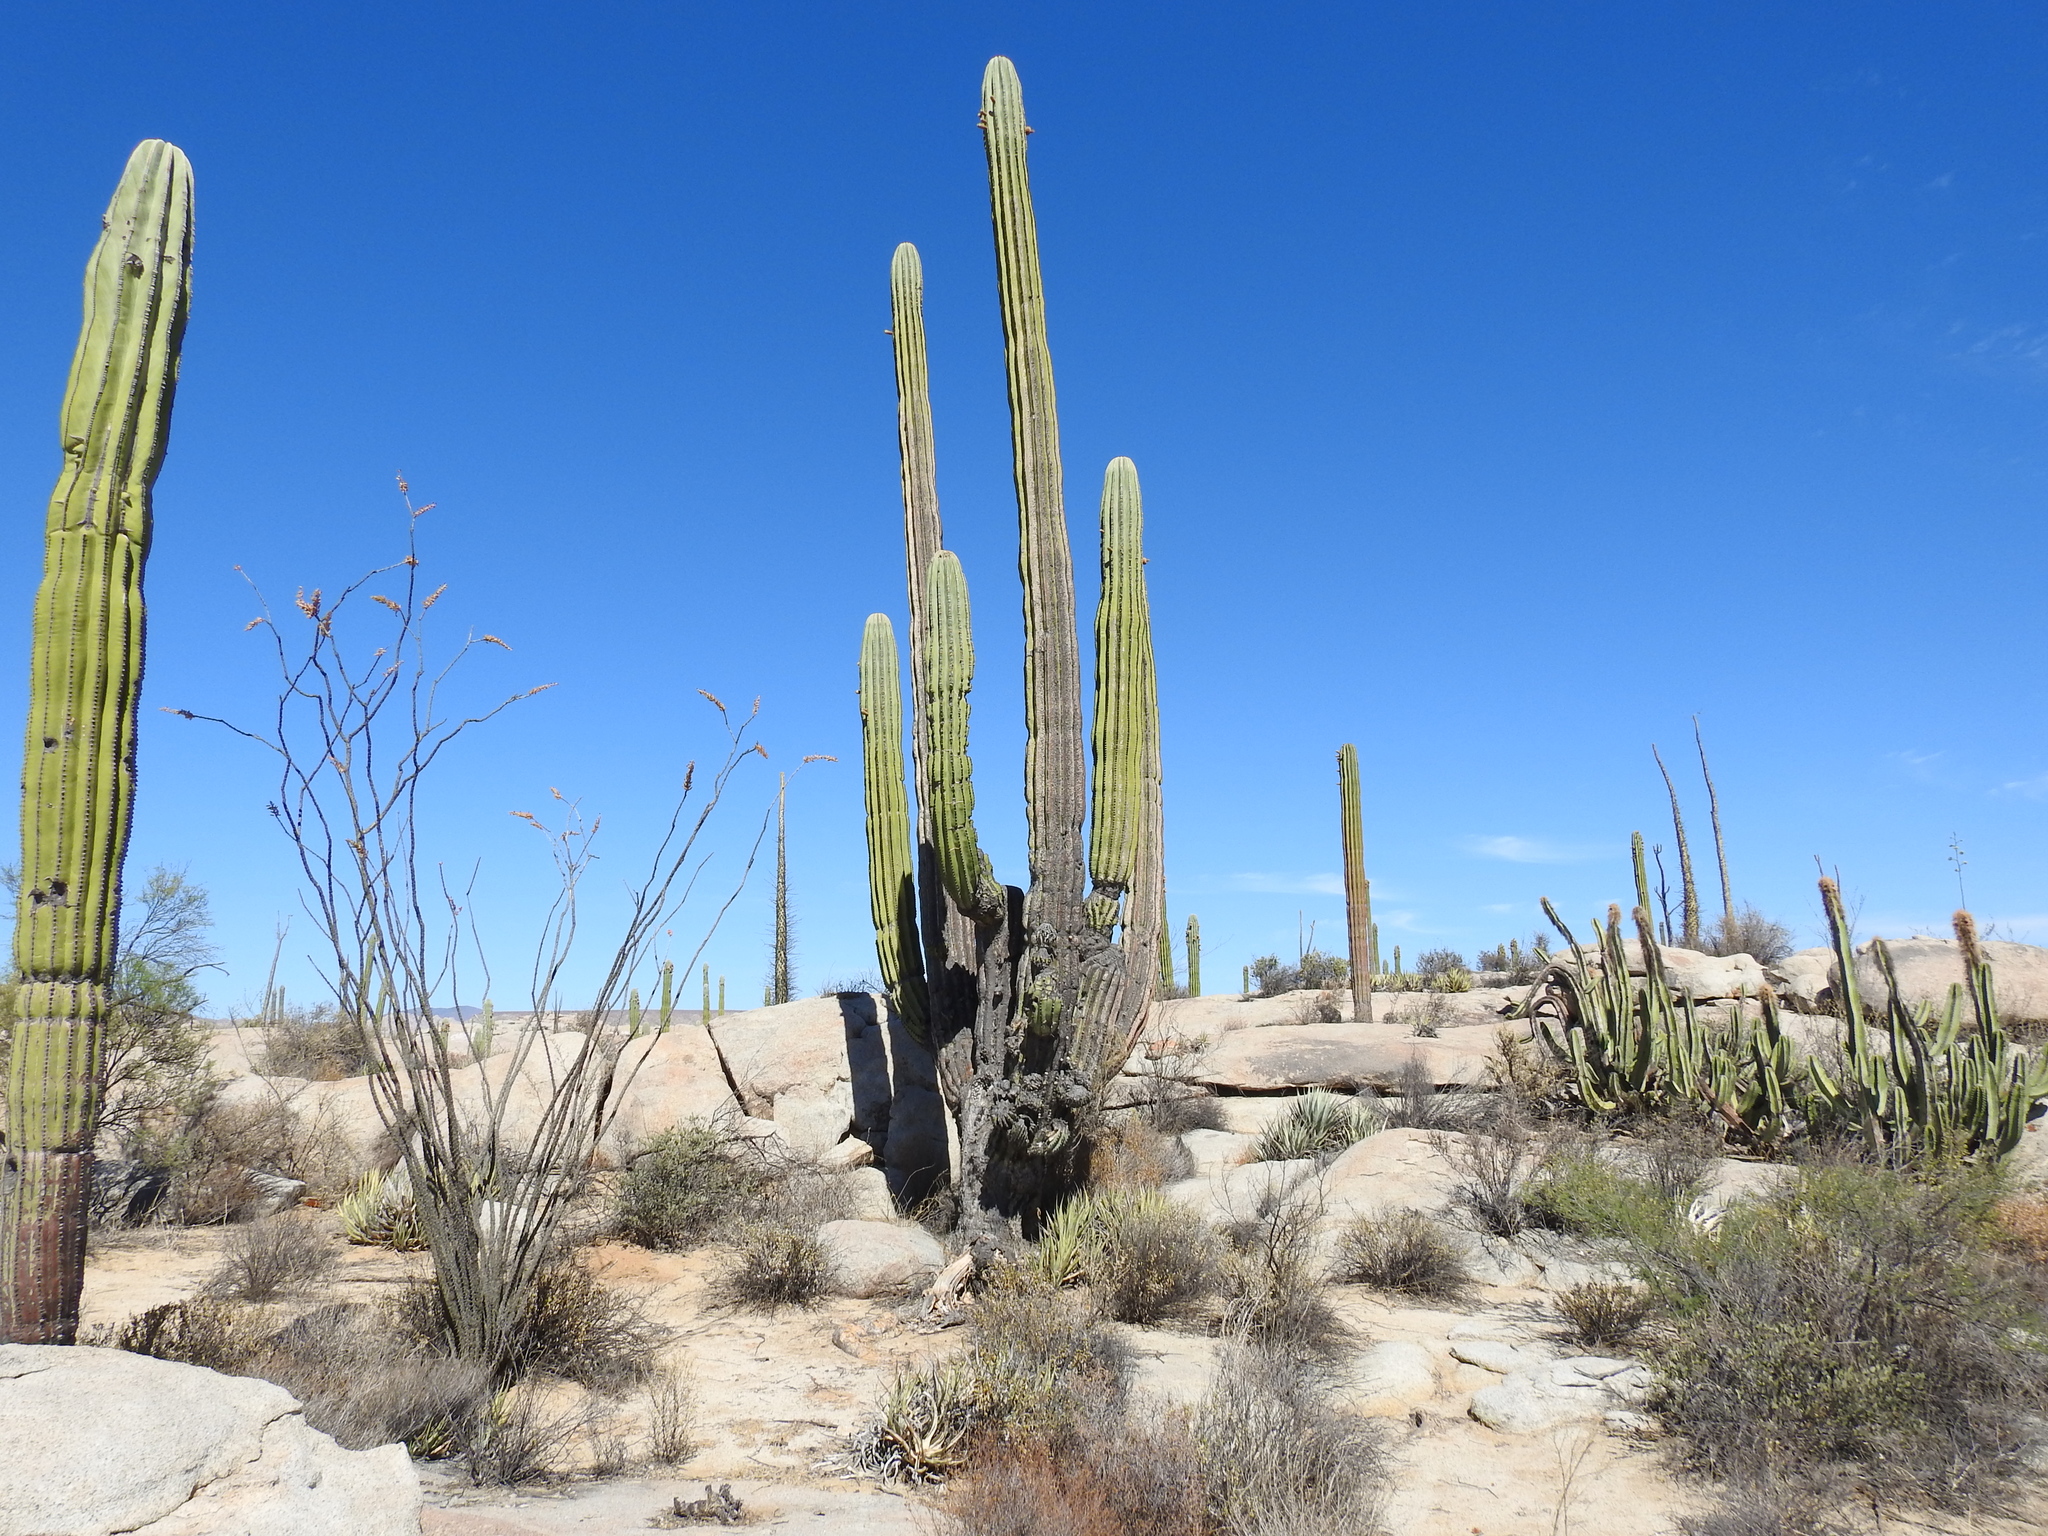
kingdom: Plantae
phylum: Tracheophyta
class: Magnoliopsida
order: Caryophyllales
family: Cactaceae
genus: Pachycereus
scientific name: Pachycereus pringlei
